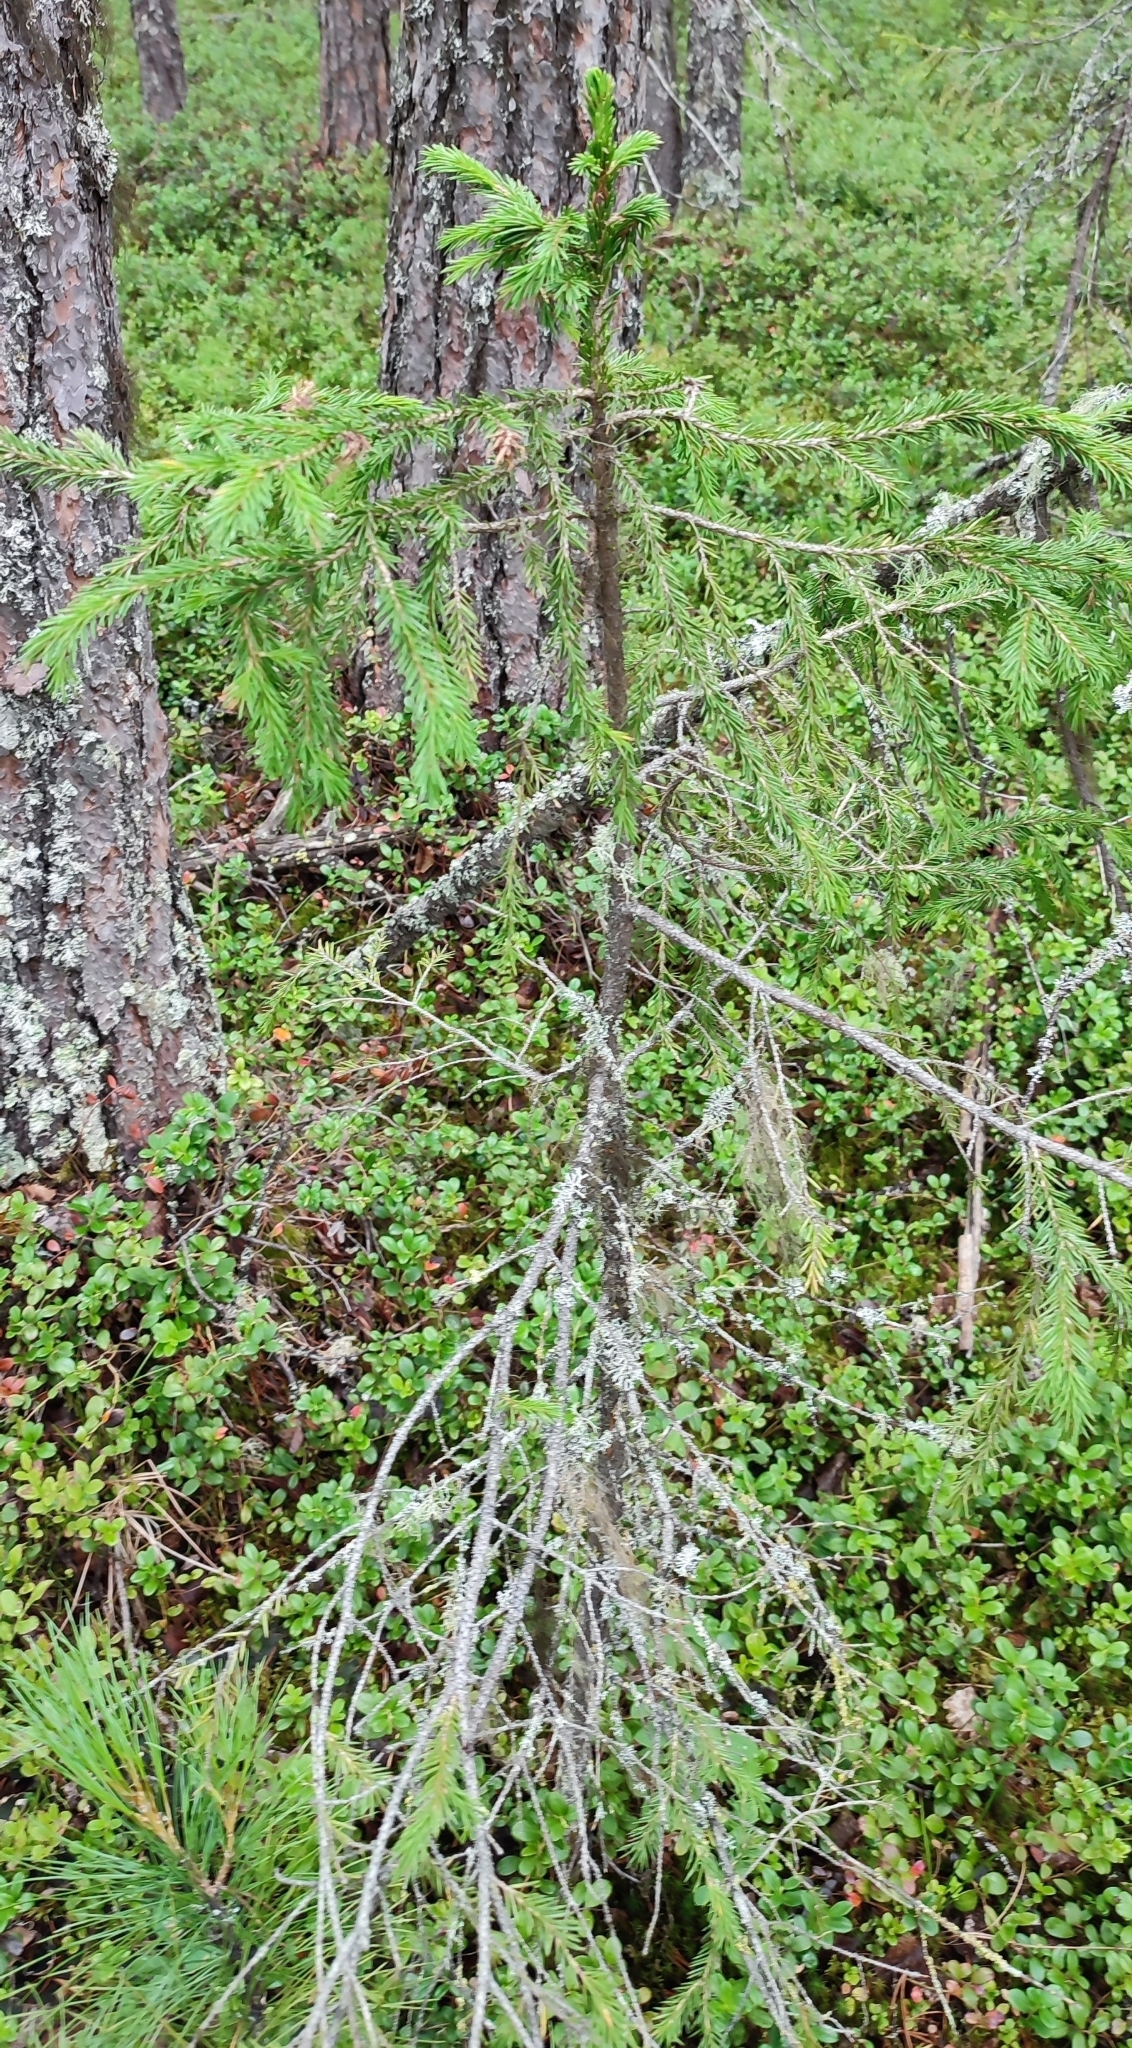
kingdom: Plantae
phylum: Tracheophyta
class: Pinopsida
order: Pinales
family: Pinaceae
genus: Picea
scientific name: Picea obovata
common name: Siberian spruce
